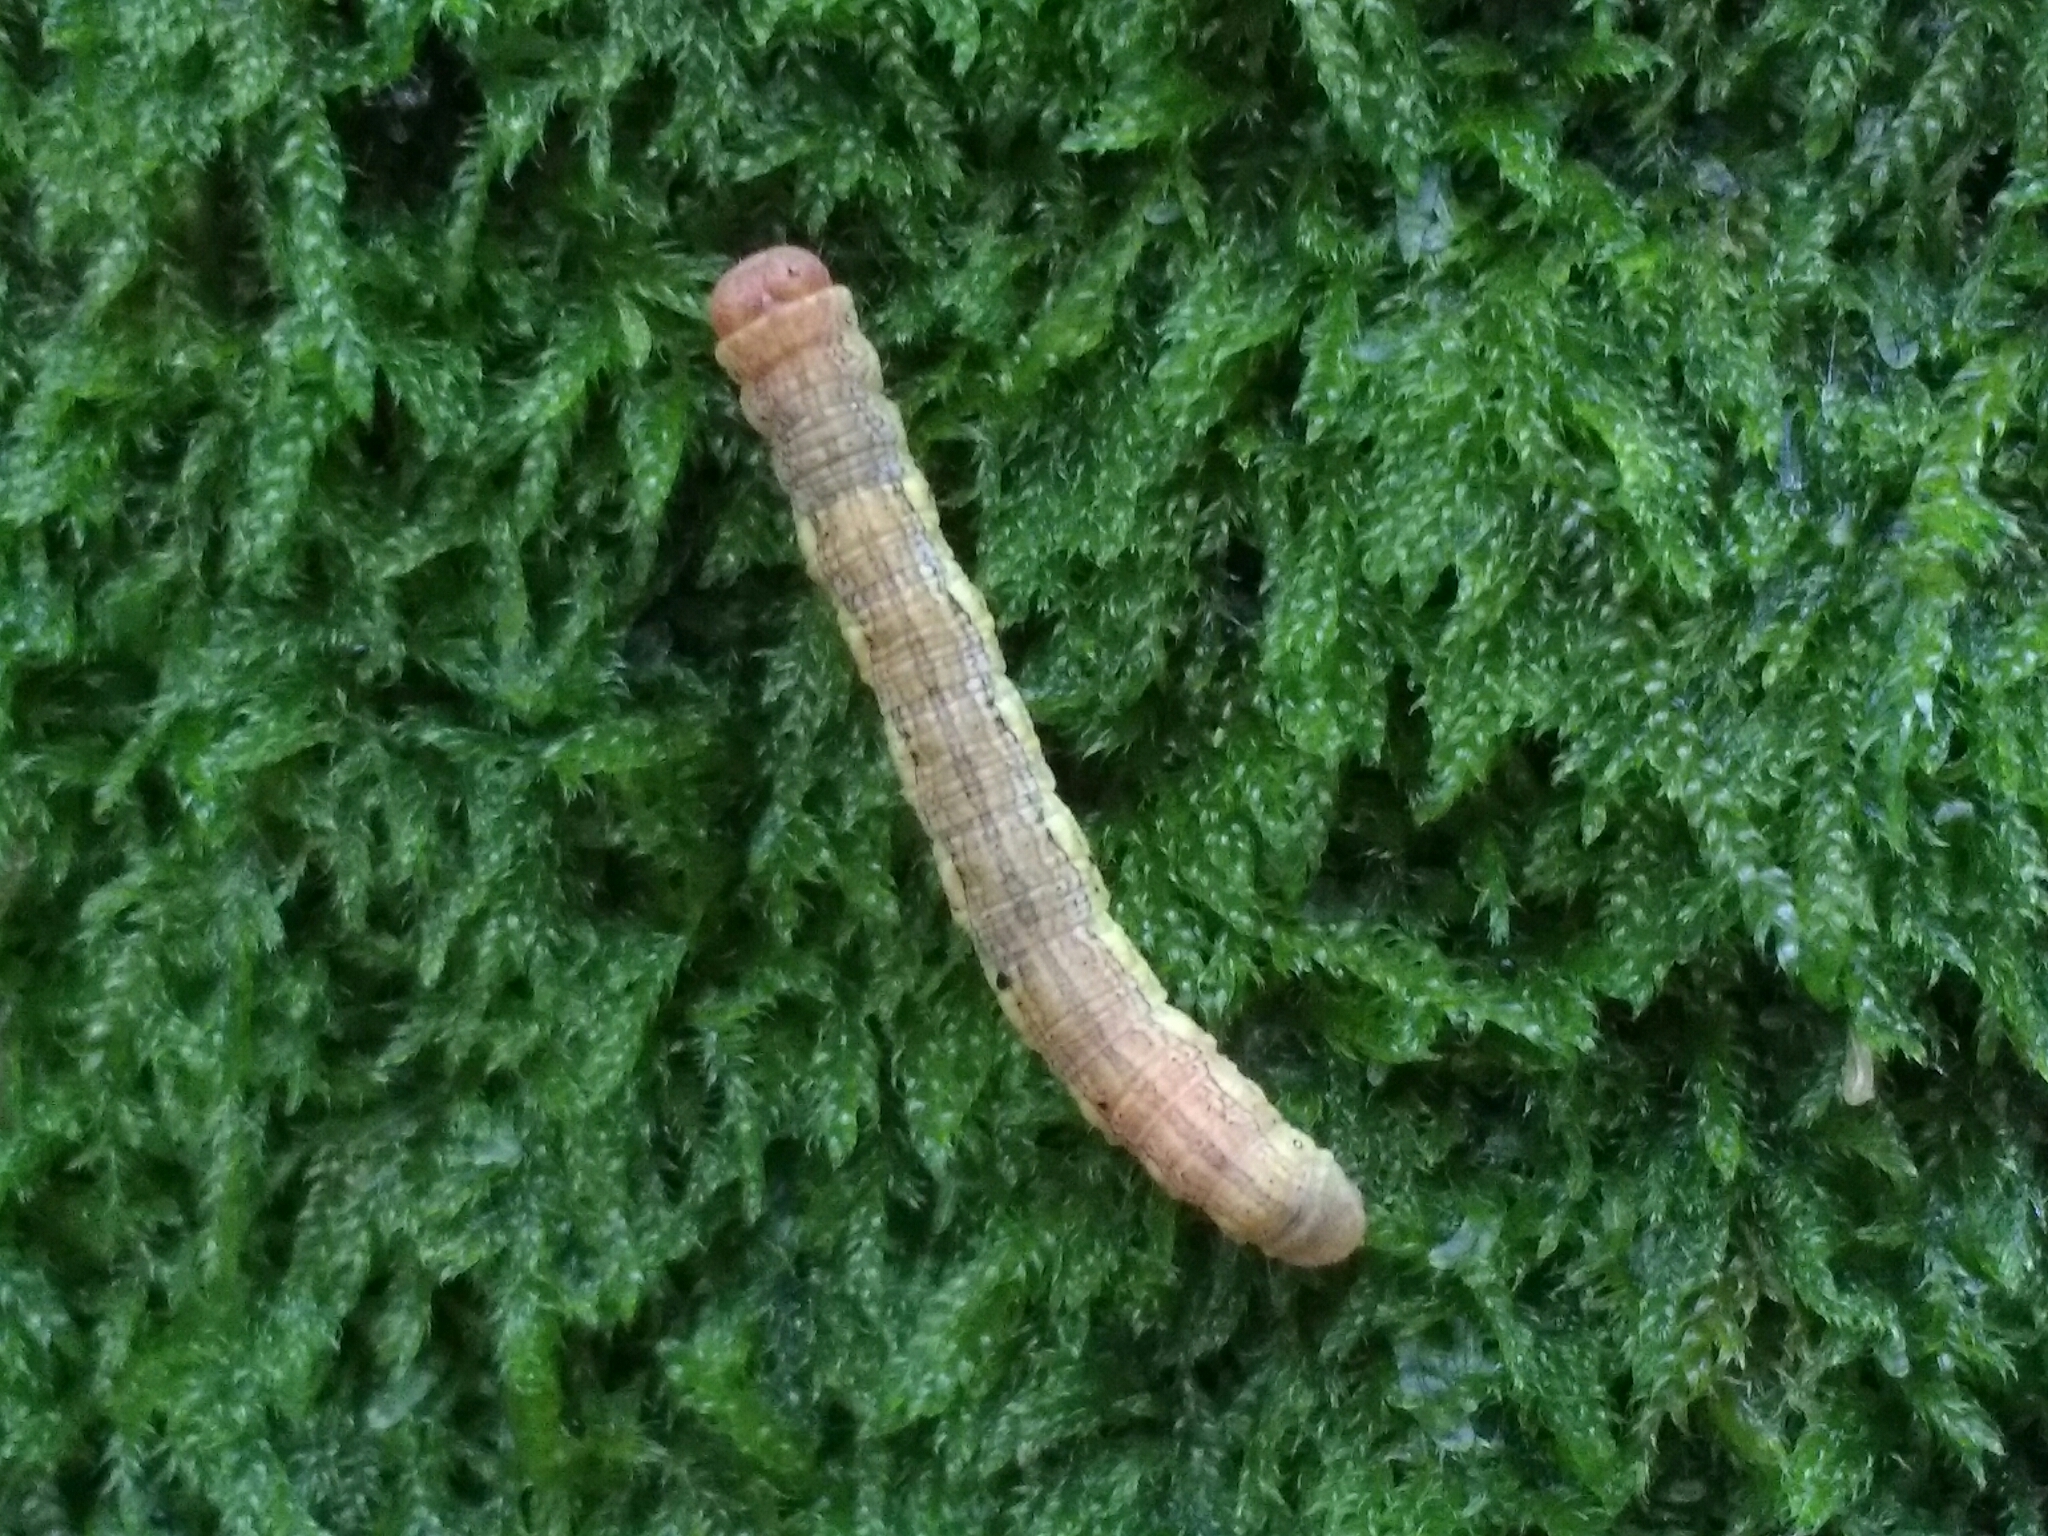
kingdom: Animalia
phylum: Arthropoda
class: Insecta
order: Lepidoptera
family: Geometridae
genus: Erannis
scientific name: Erannis defoliaria
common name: Mottled umber
